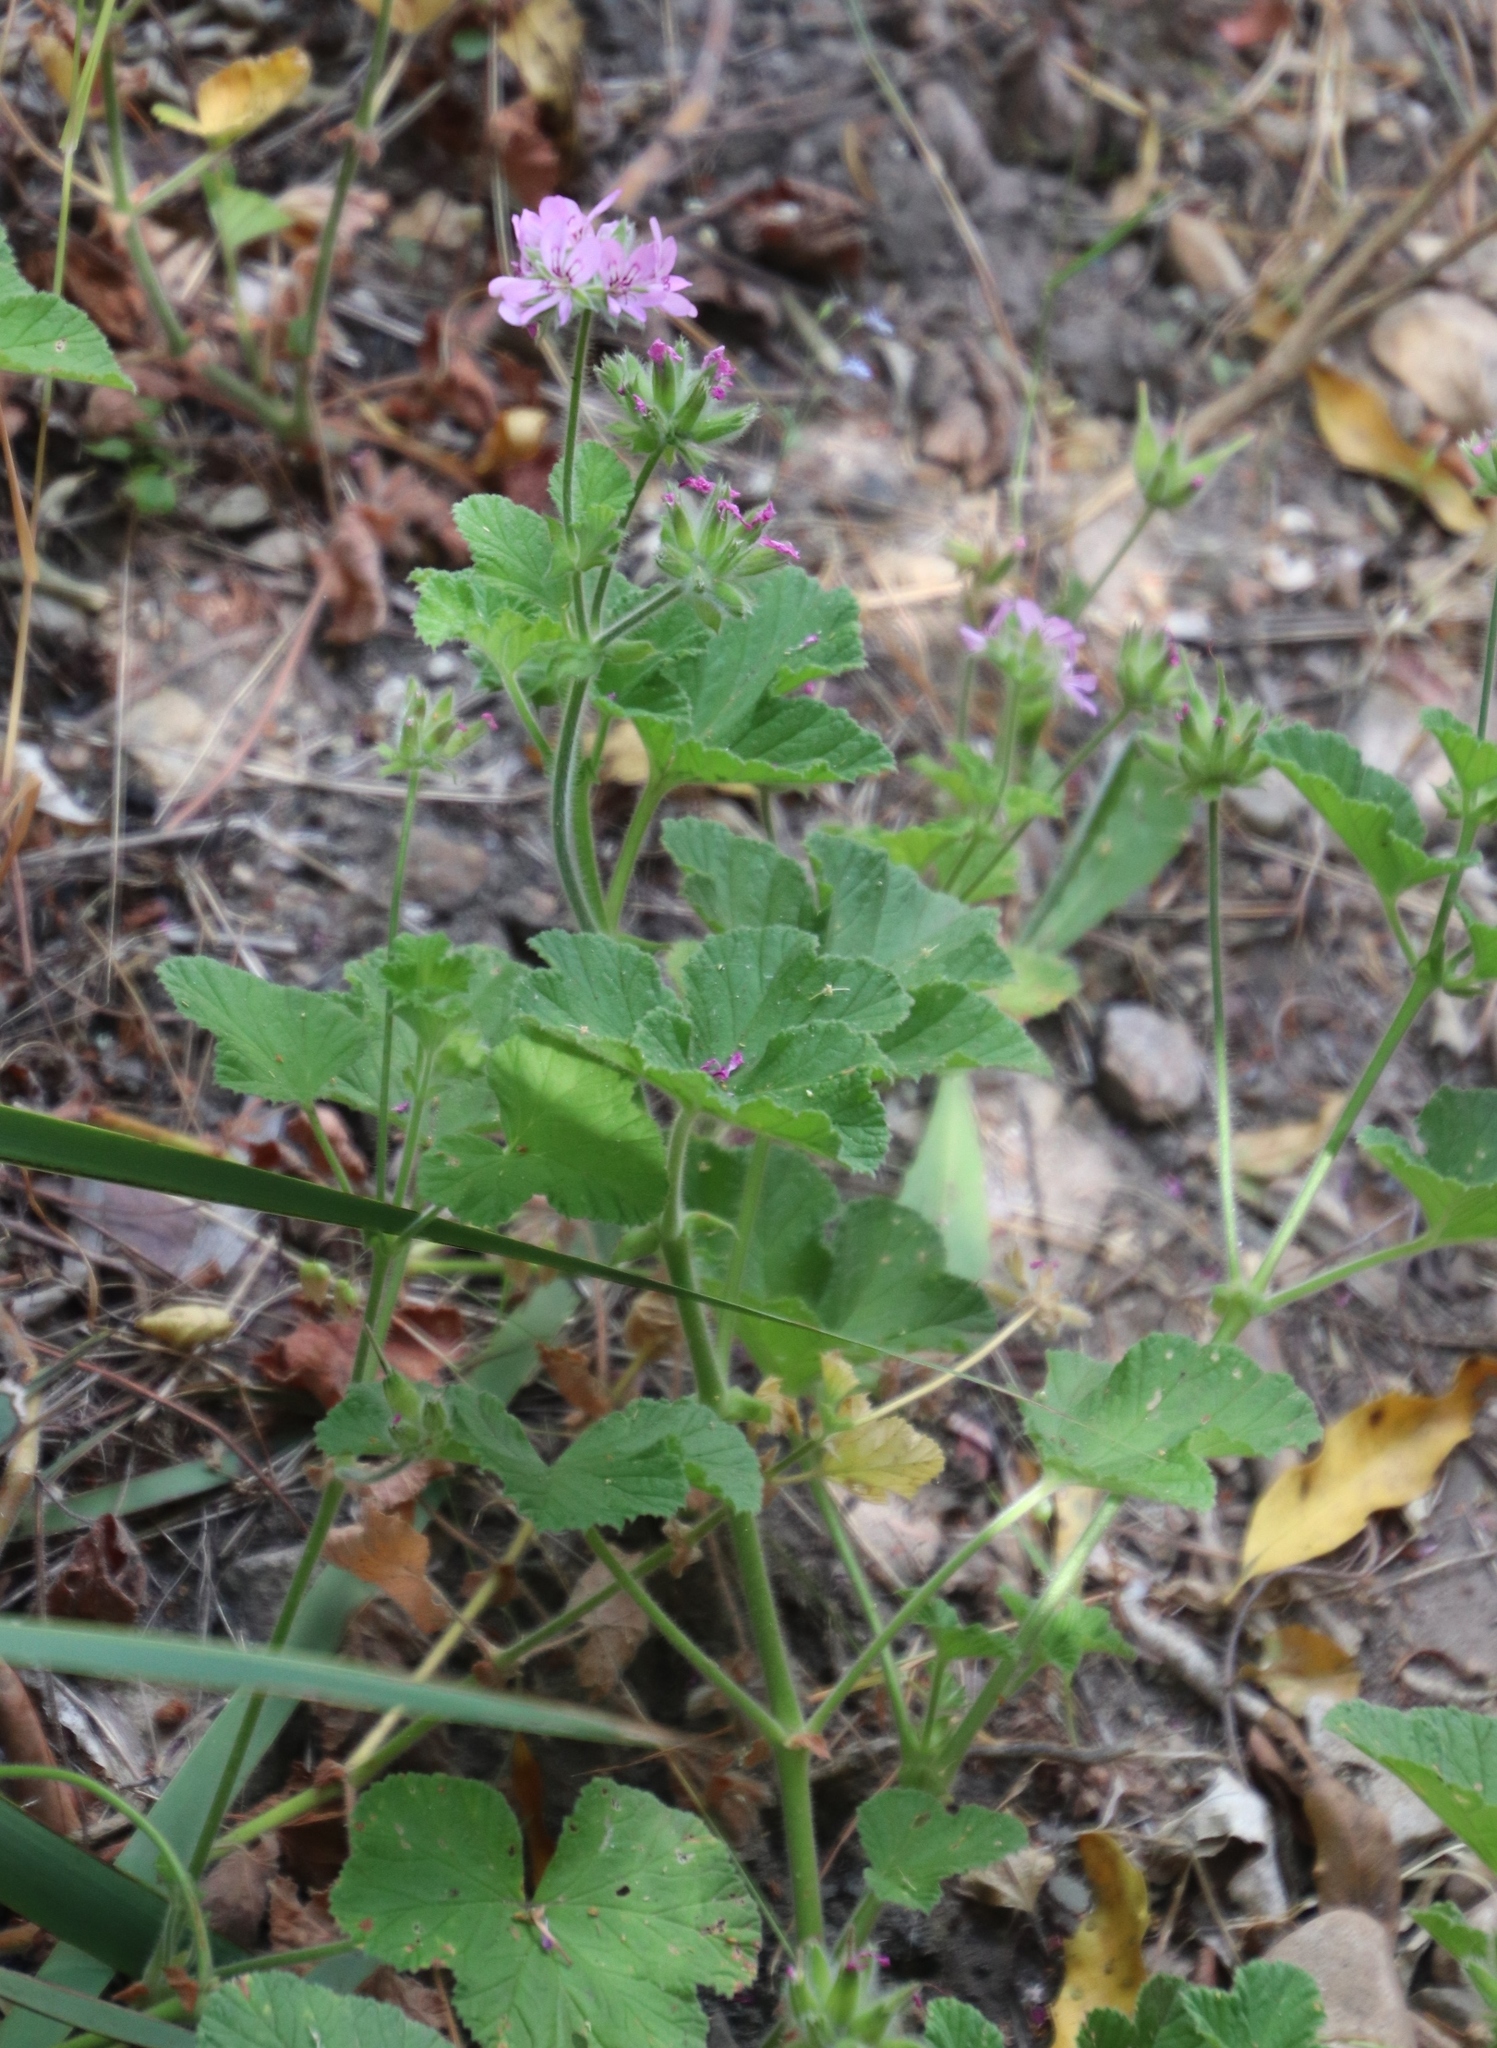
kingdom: Plantae
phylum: Tracheophyta
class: Magnoliopsida
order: Geraniales
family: Geraniaceae
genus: Pelargonium
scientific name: Pelargonium capitatum
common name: Rose scented geranium
